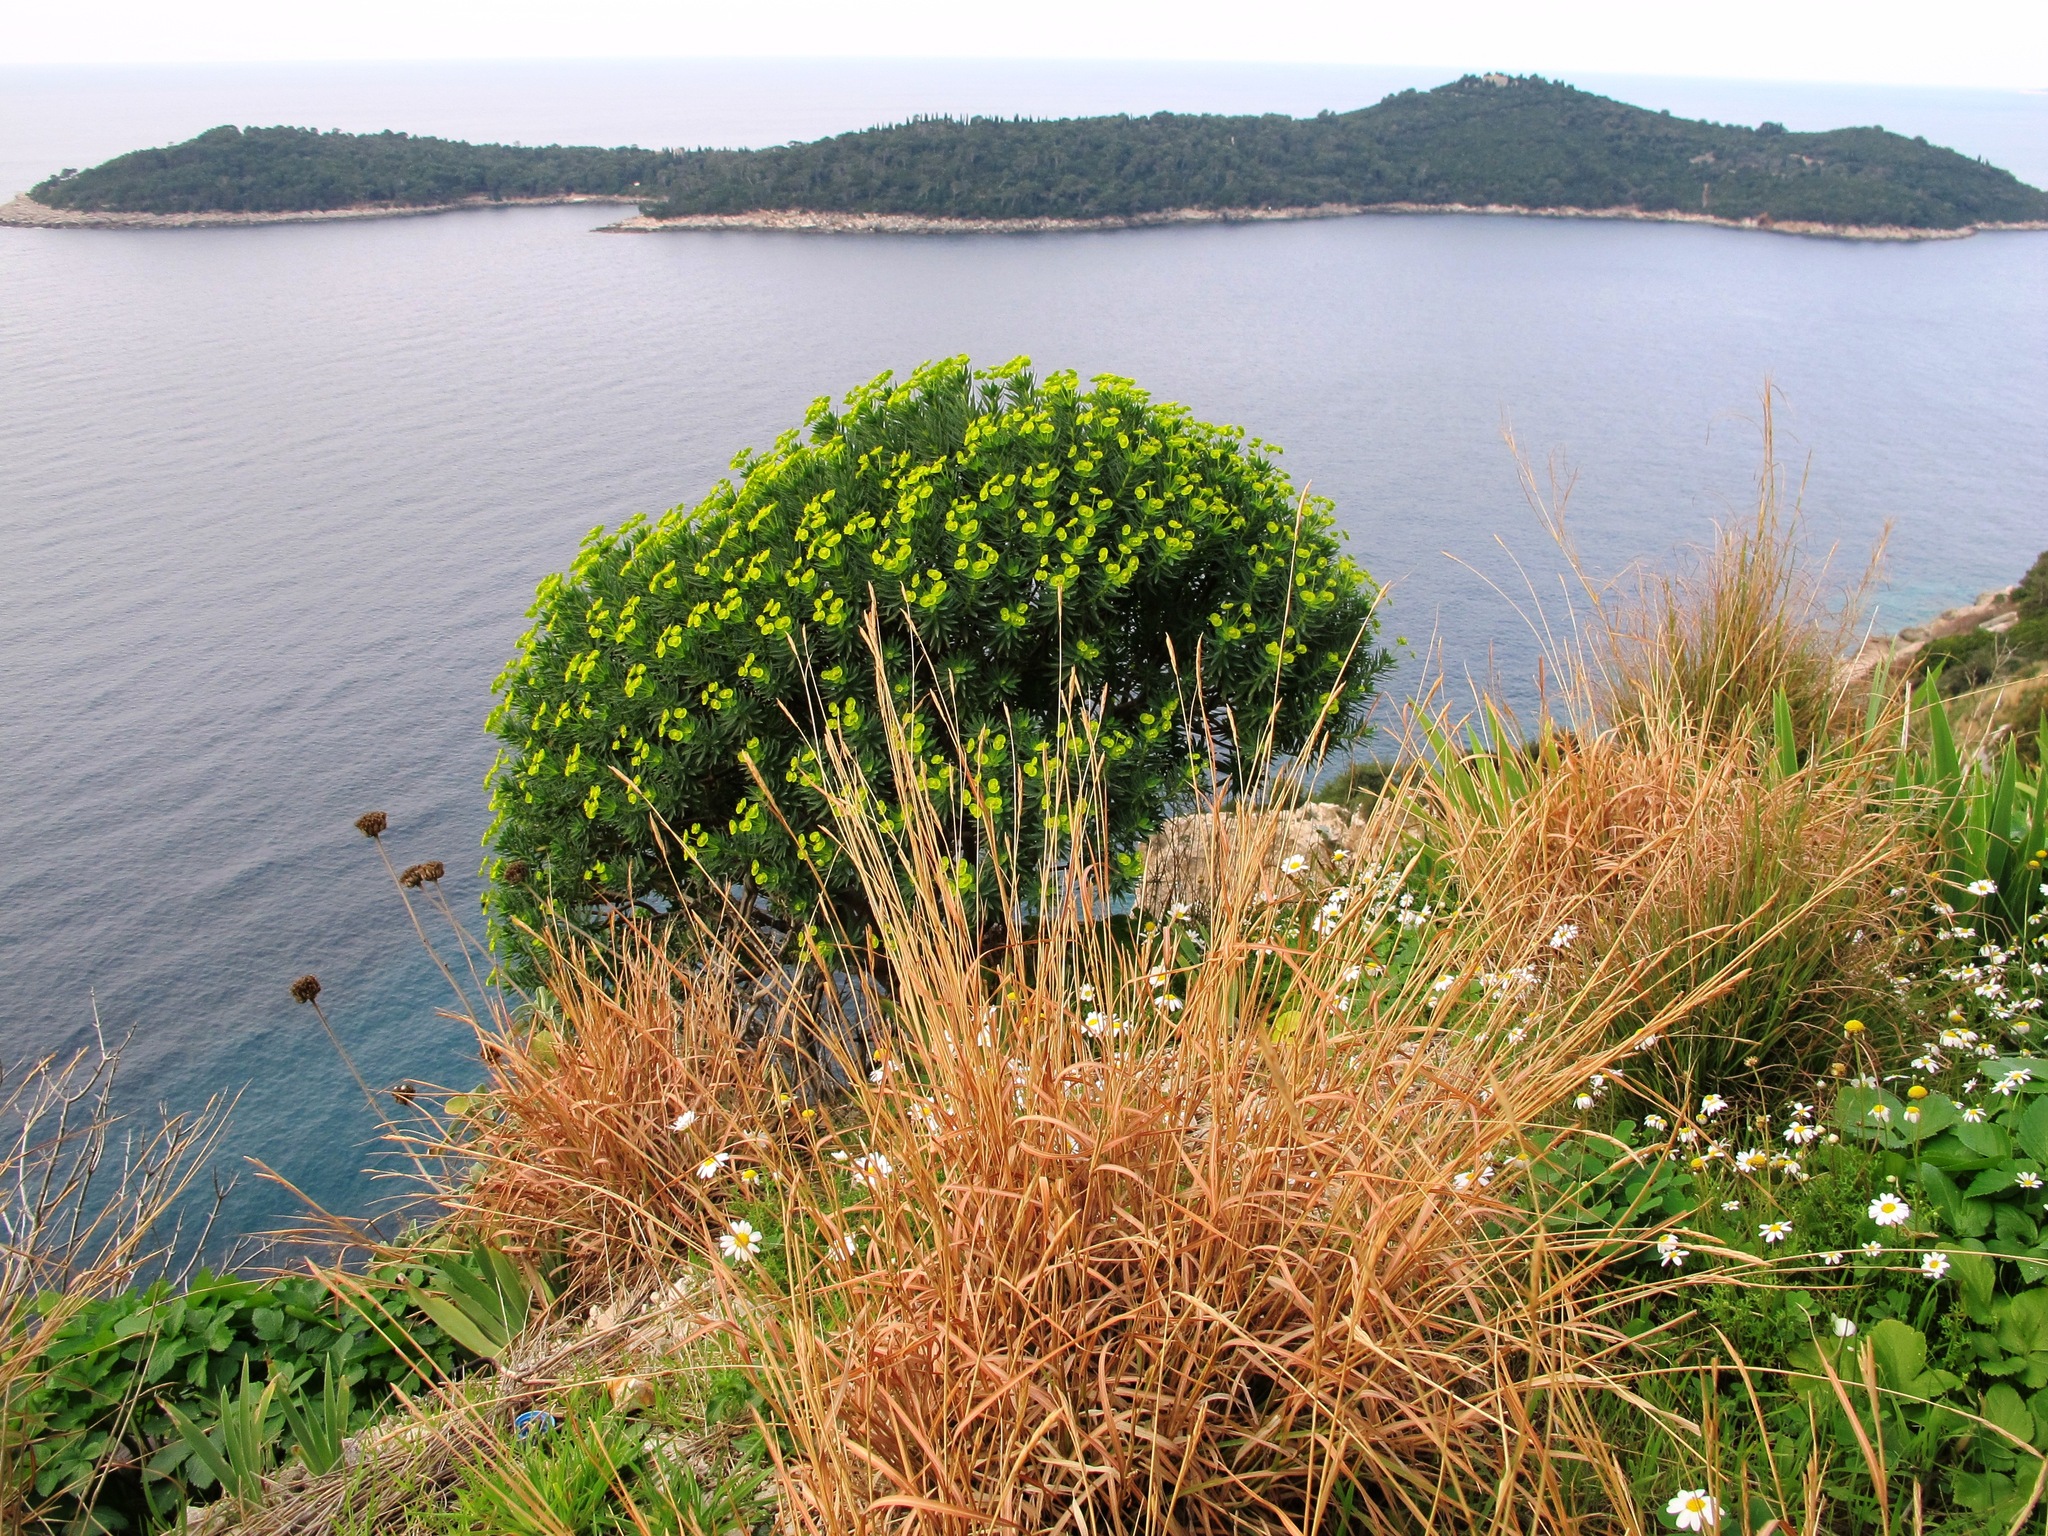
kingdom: Plantae
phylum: Tracheophyta
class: Magnoliopsida
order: Malpighiales
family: Euphorbiaceae
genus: Euphorbia
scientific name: Euphorbia dendroides
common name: Tree spurge
